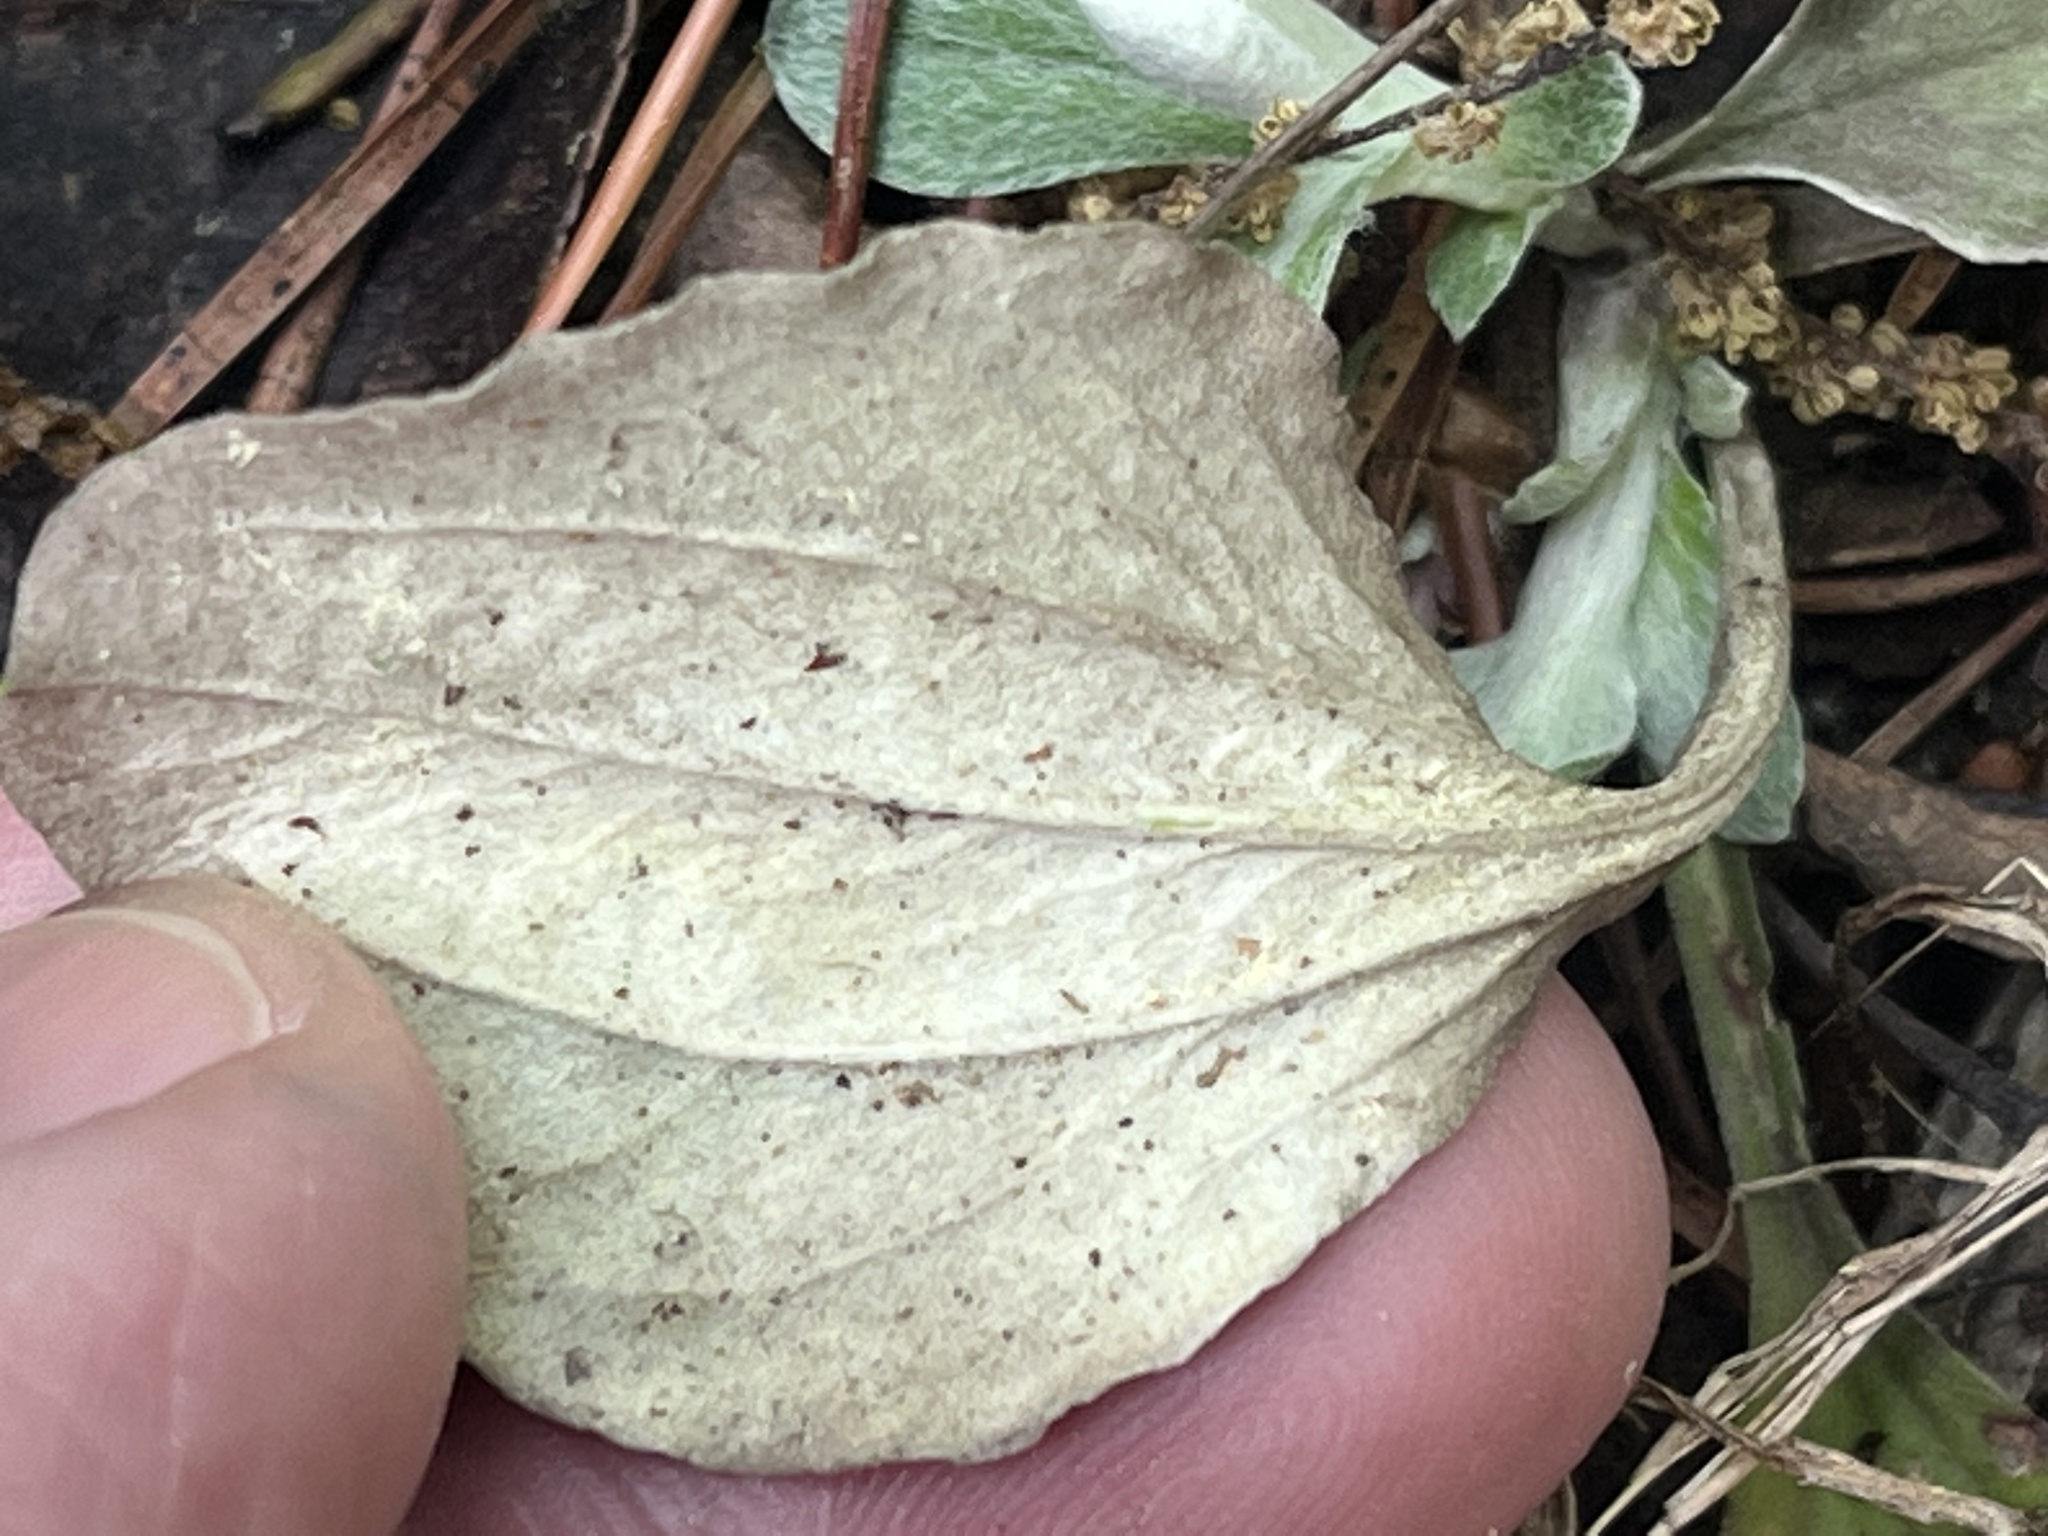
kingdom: Plantae
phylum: Tracheophyta
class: Magnoliopsida
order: Asterales
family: Asteraceae
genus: Antennaria
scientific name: Antennaria parlinii
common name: Parlin's pussytoes
